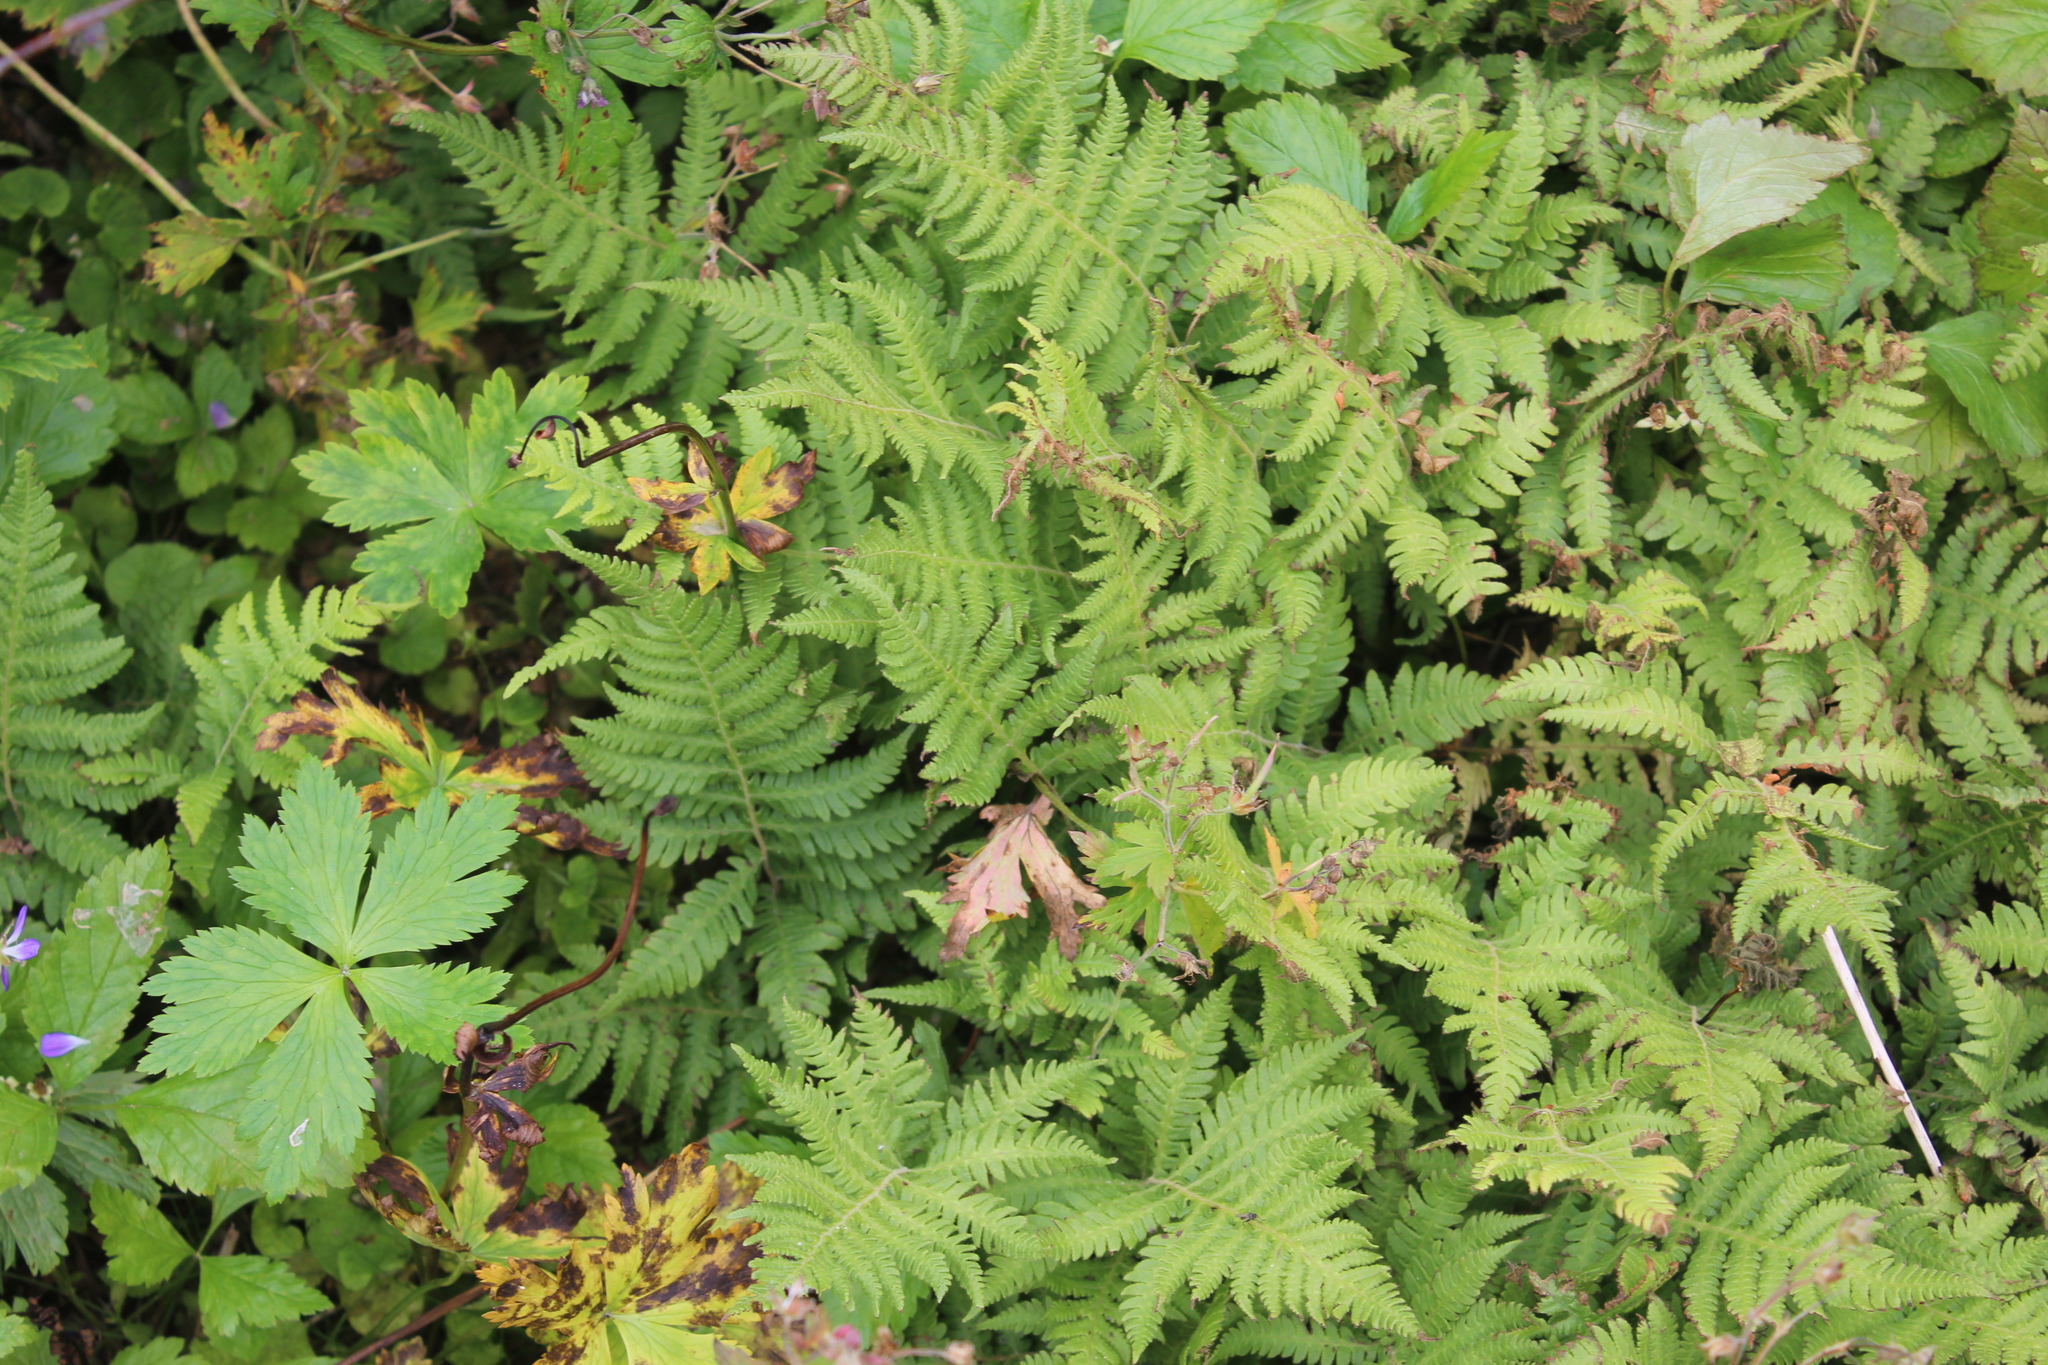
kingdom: Plantae
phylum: Tracheophyta
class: Polypodiopsida
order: Polypodiales
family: Thelypteridaceae
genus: Phegopteris
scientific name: Phegopteris connectilis
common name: Beech fern
